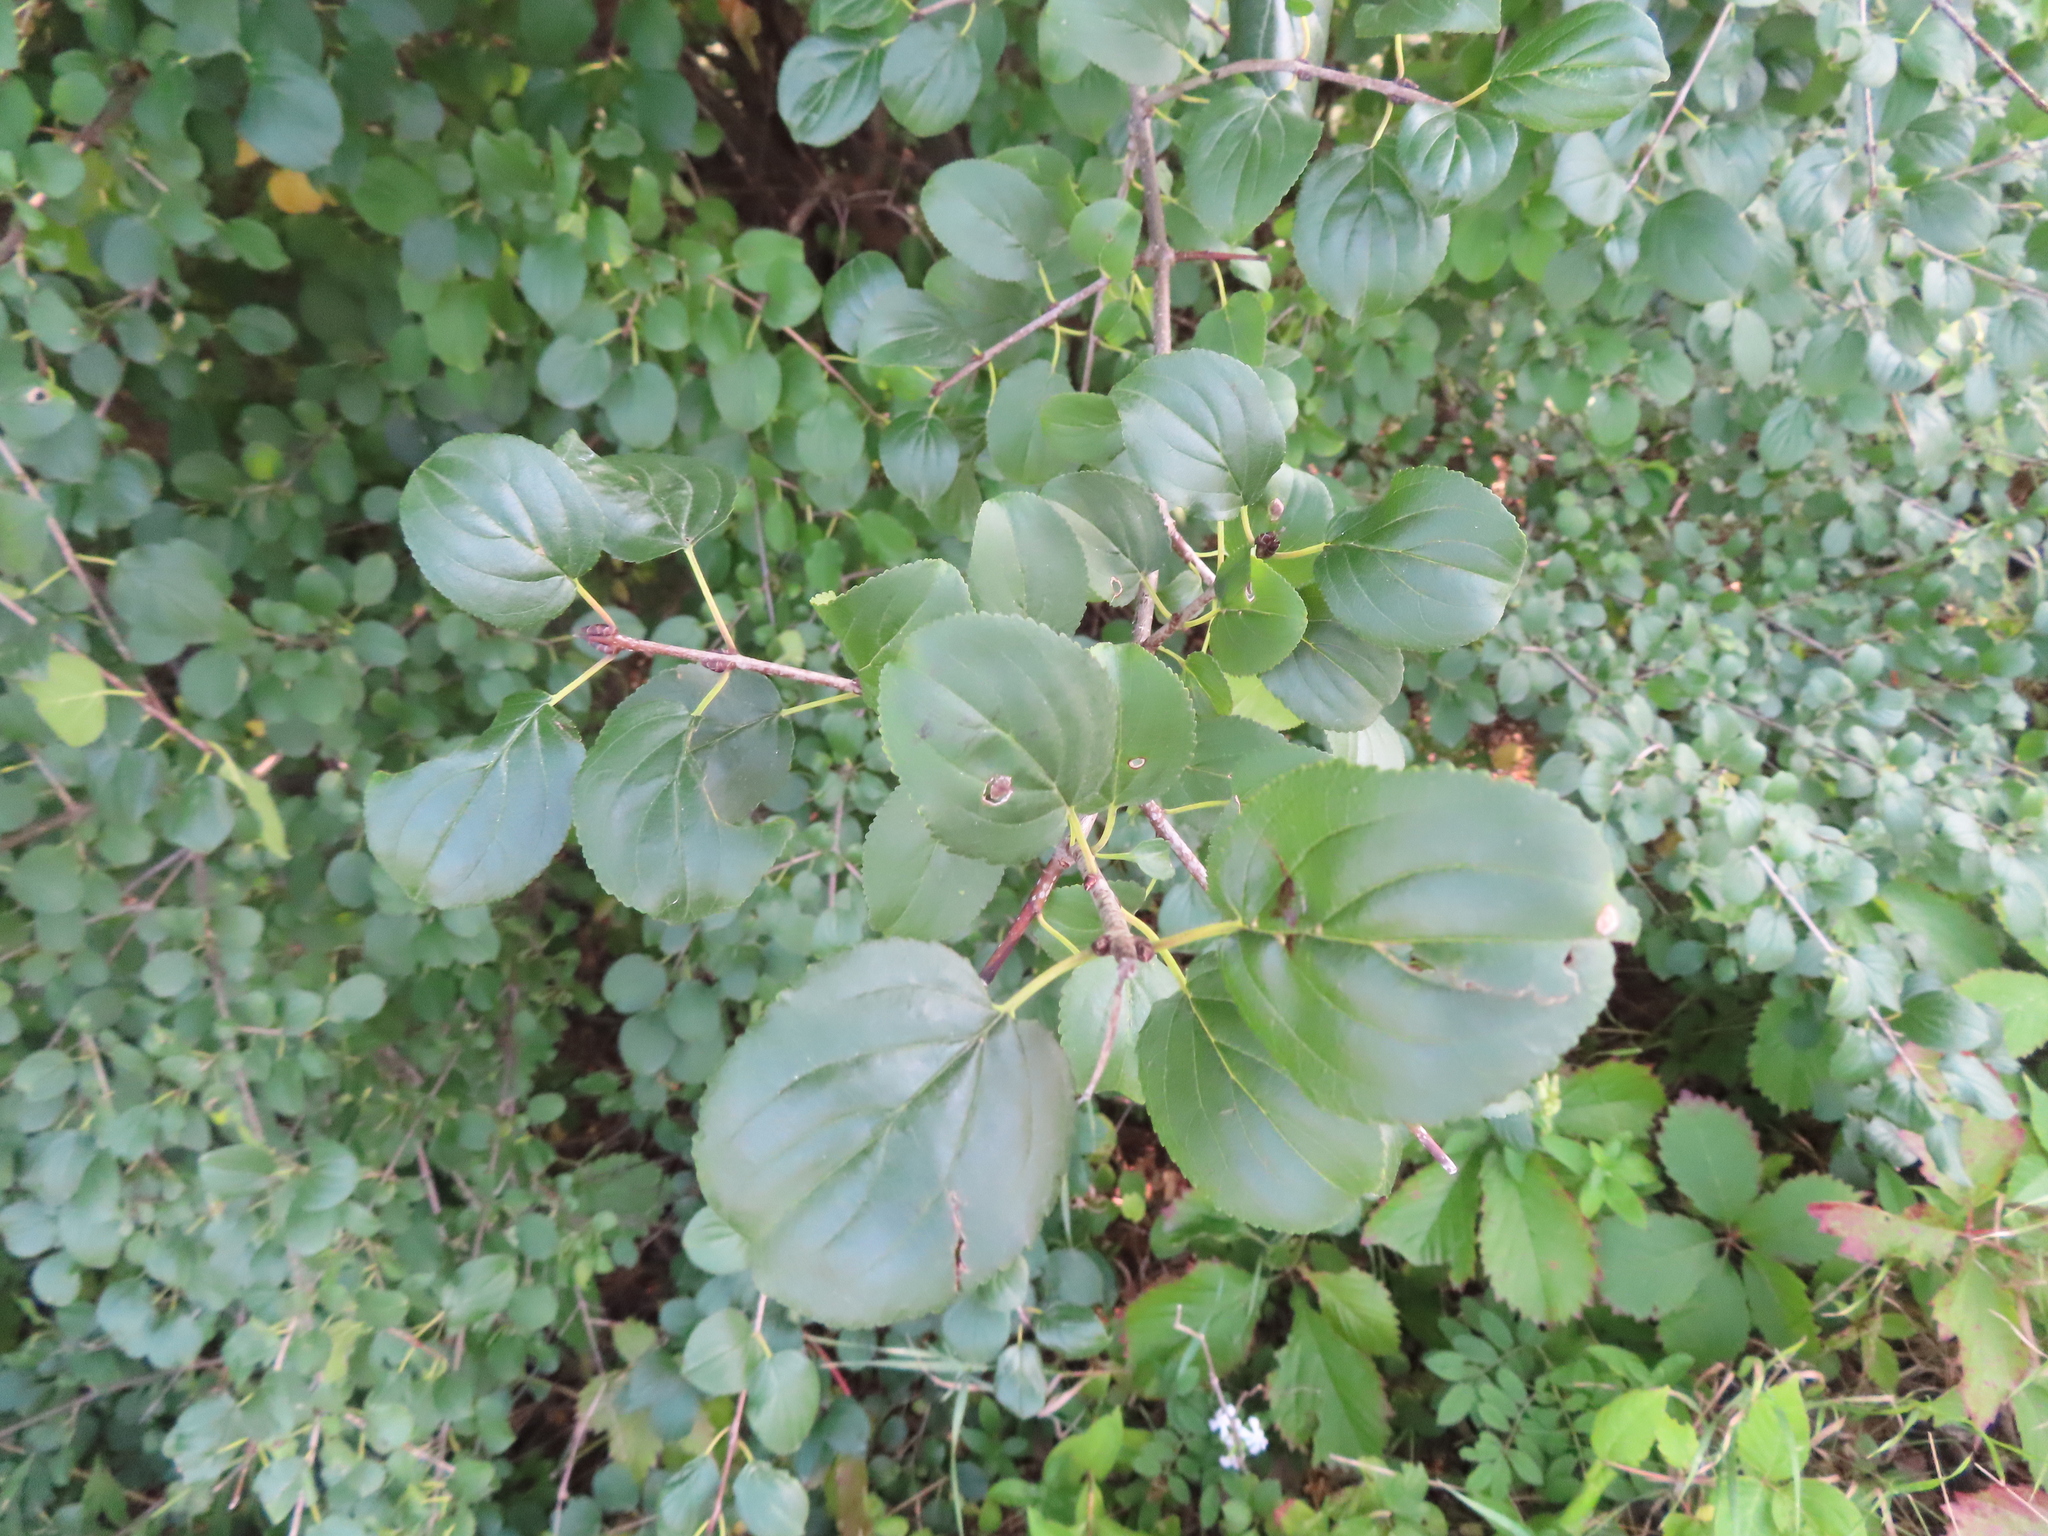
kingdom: Plantae
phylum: Tracheophyta
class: Magnoliopsida
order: Rosales
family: Rhamnaceae
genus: Rhamnus
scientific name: Rhamnus cathartica
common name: Common buckthorn
